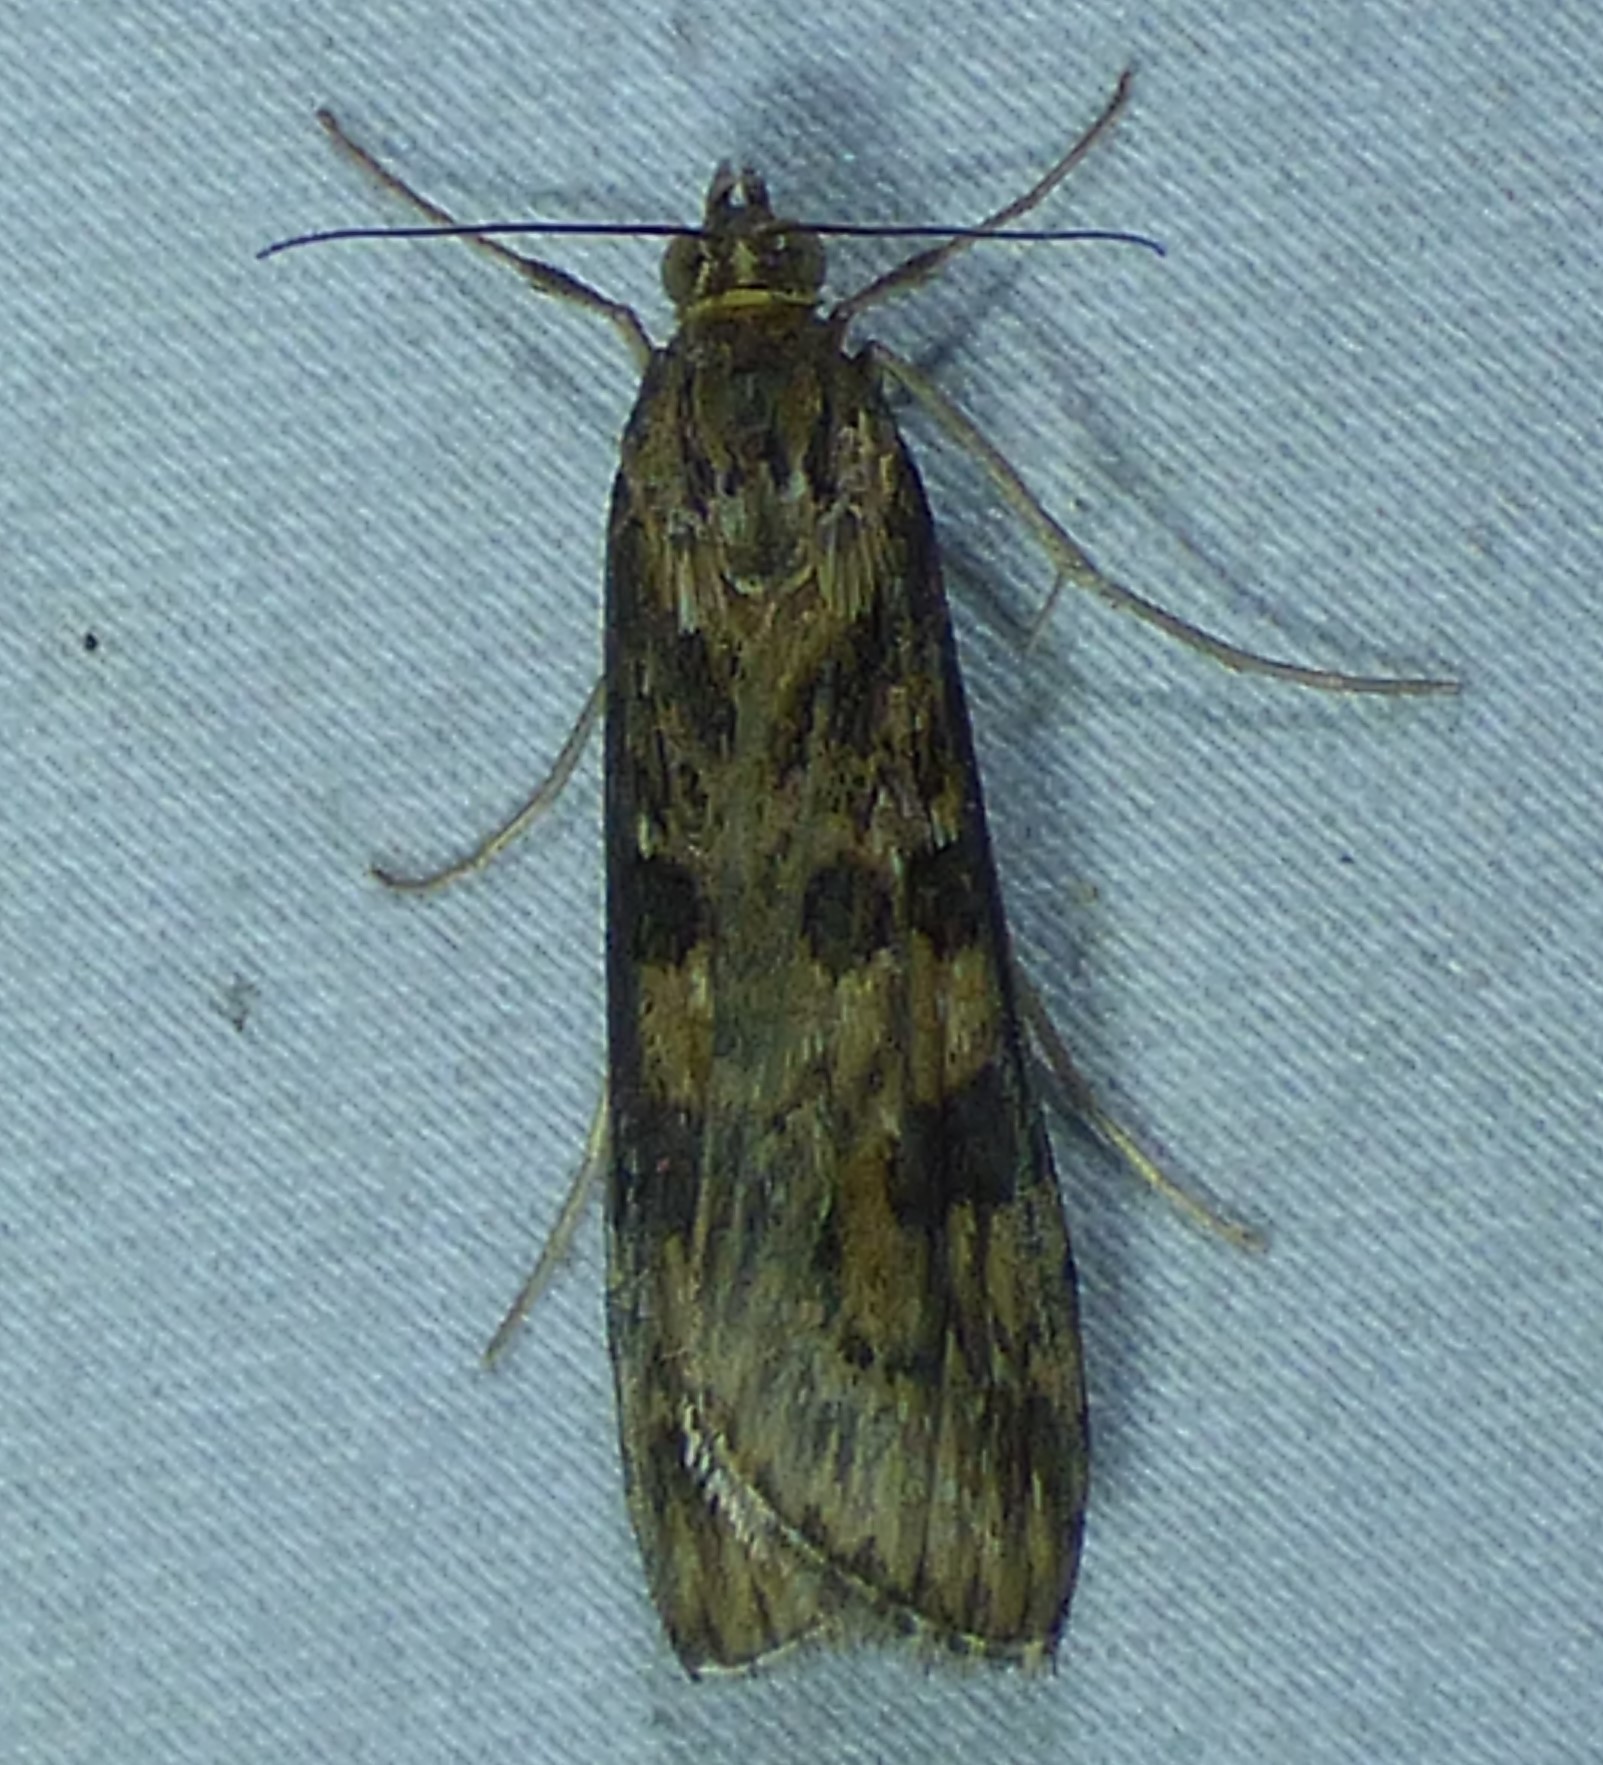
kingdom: Animalia
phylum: Arthropoda
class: Insecta
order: Lepidoptera
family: Crambidae
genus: Nomophila
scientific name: Nomophila nearctica
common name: American rush veneer
